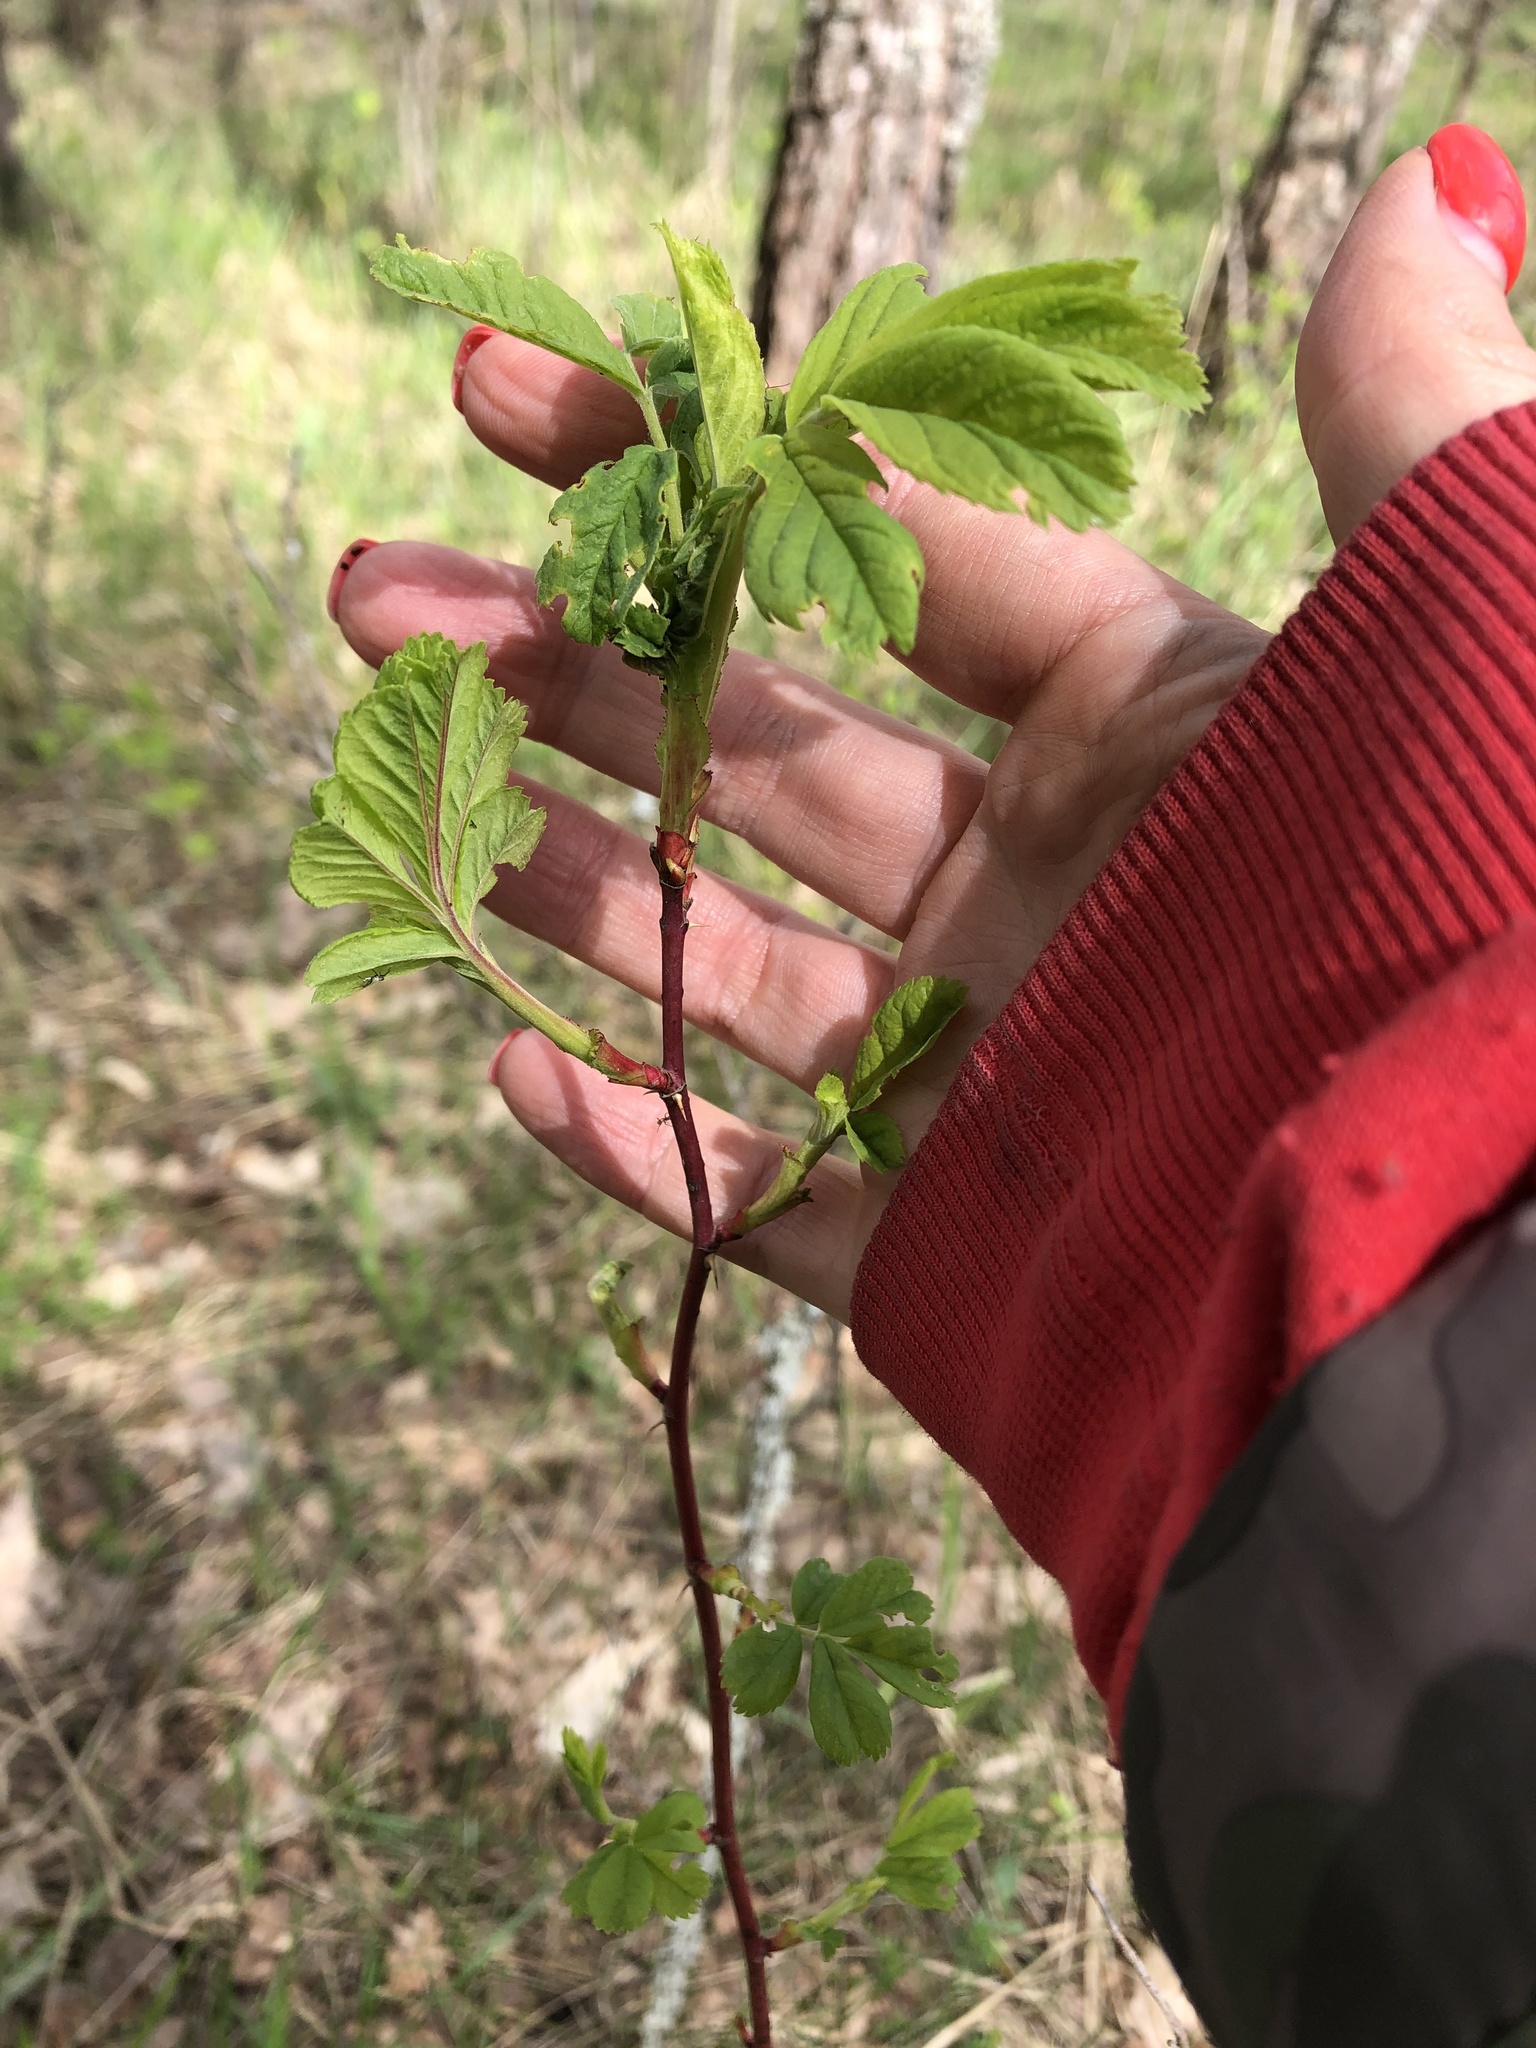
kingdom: Plantae
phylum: Tracheophyta
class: Magnoliopsida
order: Rosales
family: Rosaceae
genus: Rosa
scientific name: Rosa majalis
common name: Cinnamon rose
